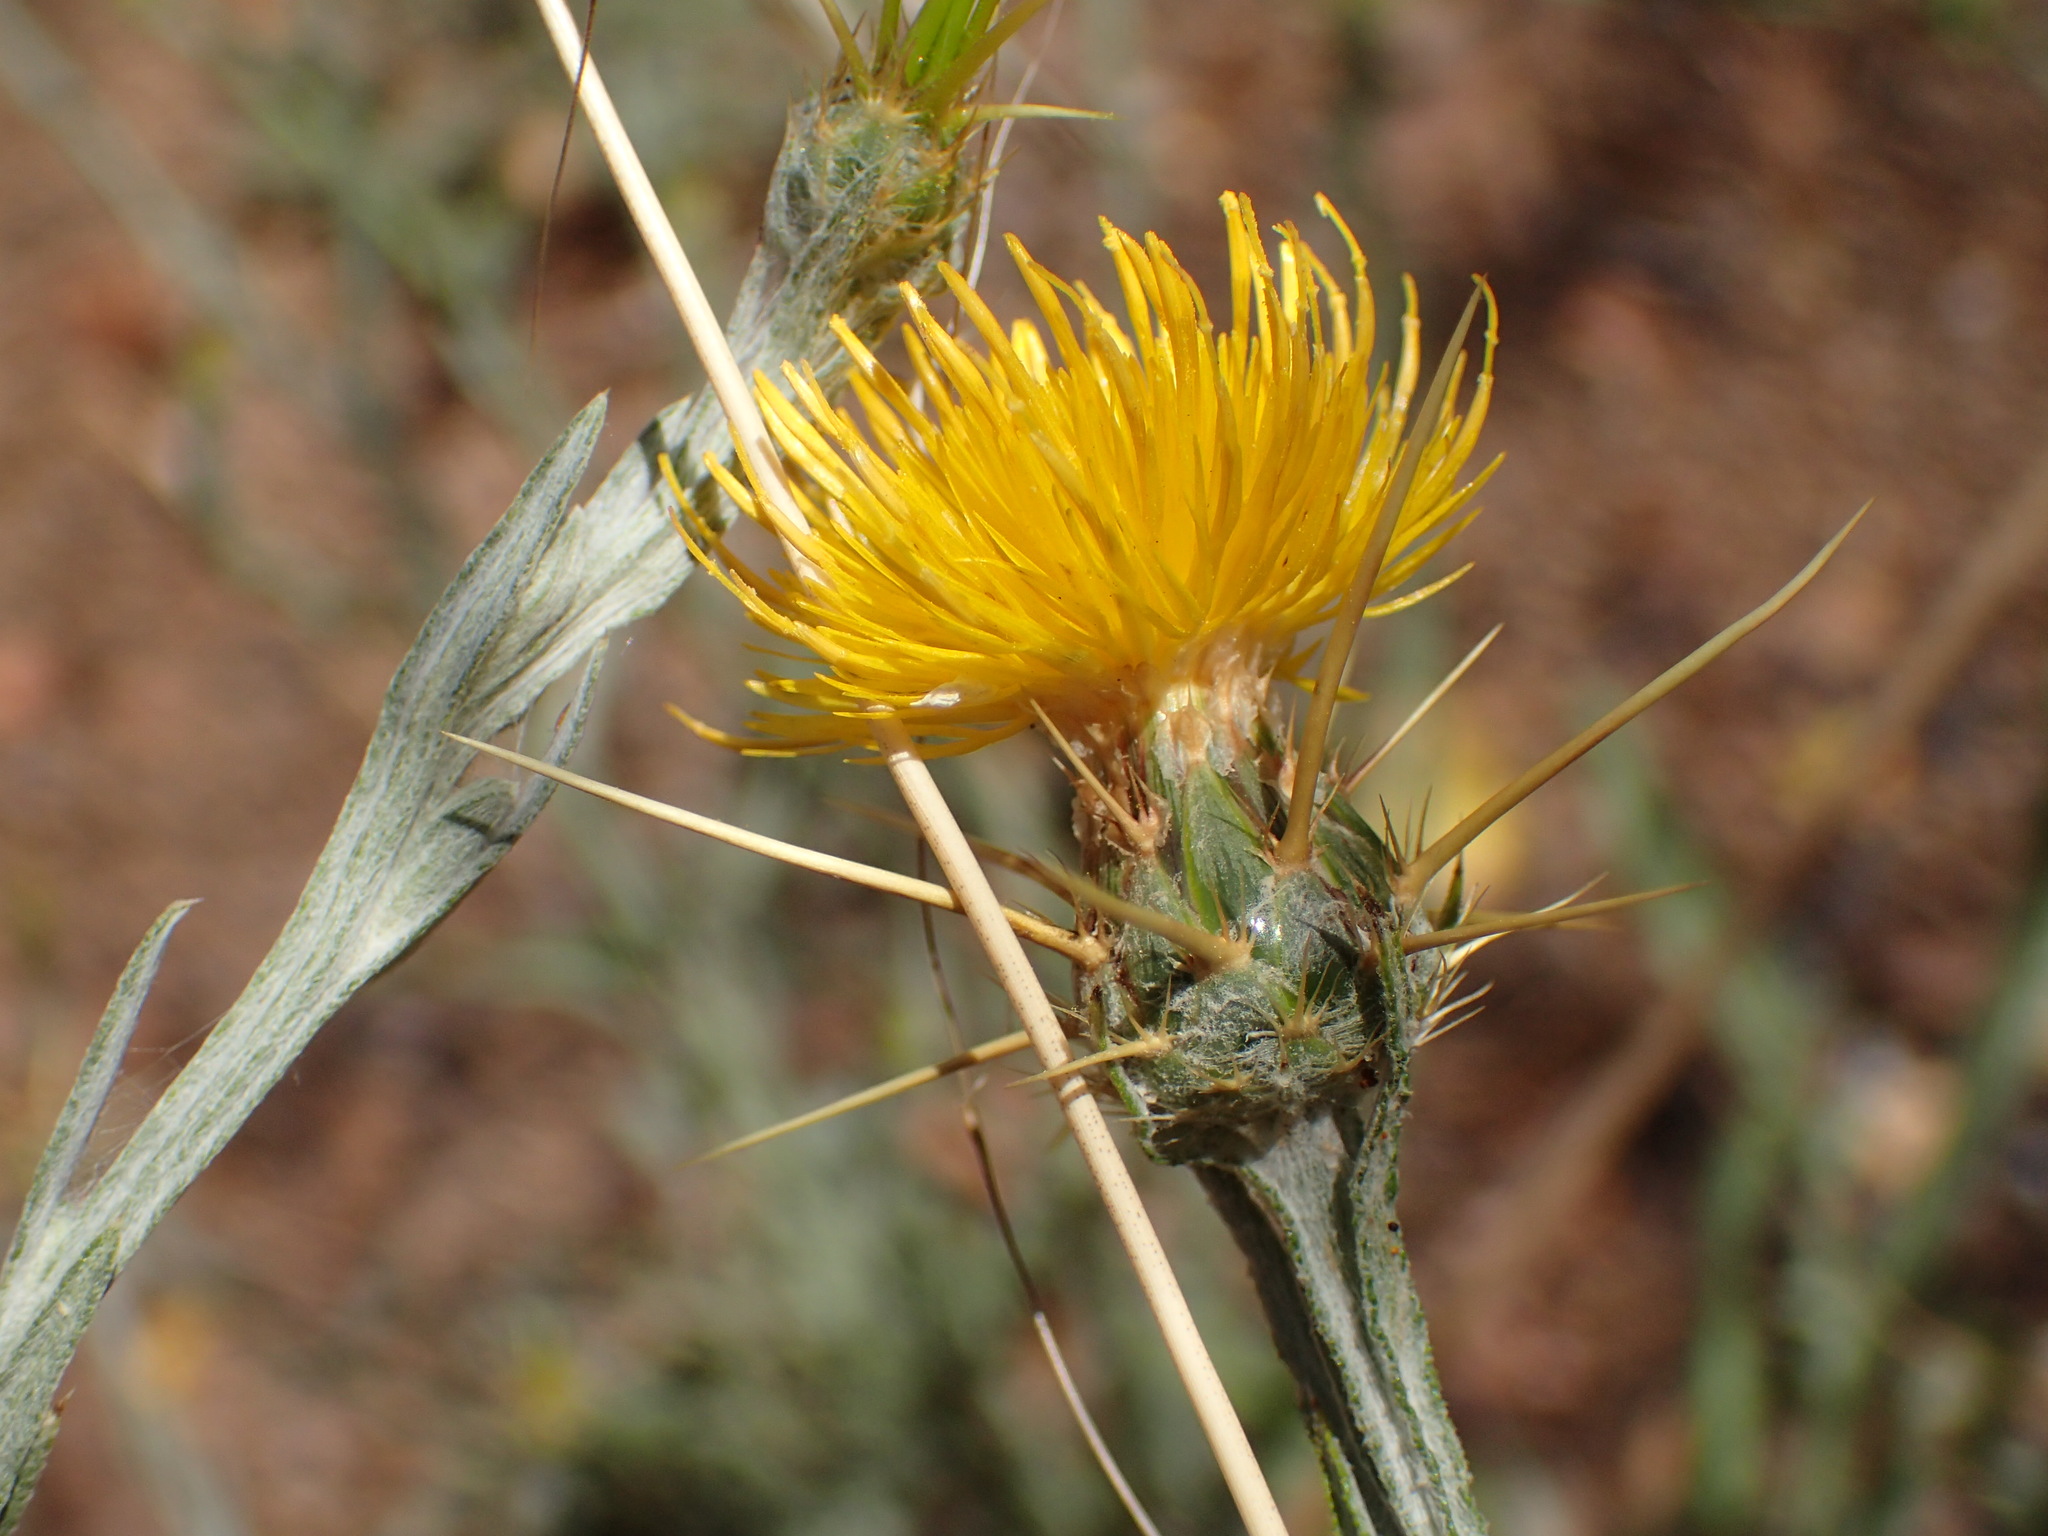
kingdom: Plantae
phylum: Tracheophyta
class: Magnoliopsida
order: Asterales
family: Asteraceae
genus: Centaurea
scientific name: Centaurea solstitialis
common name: Yellow star-thistle
